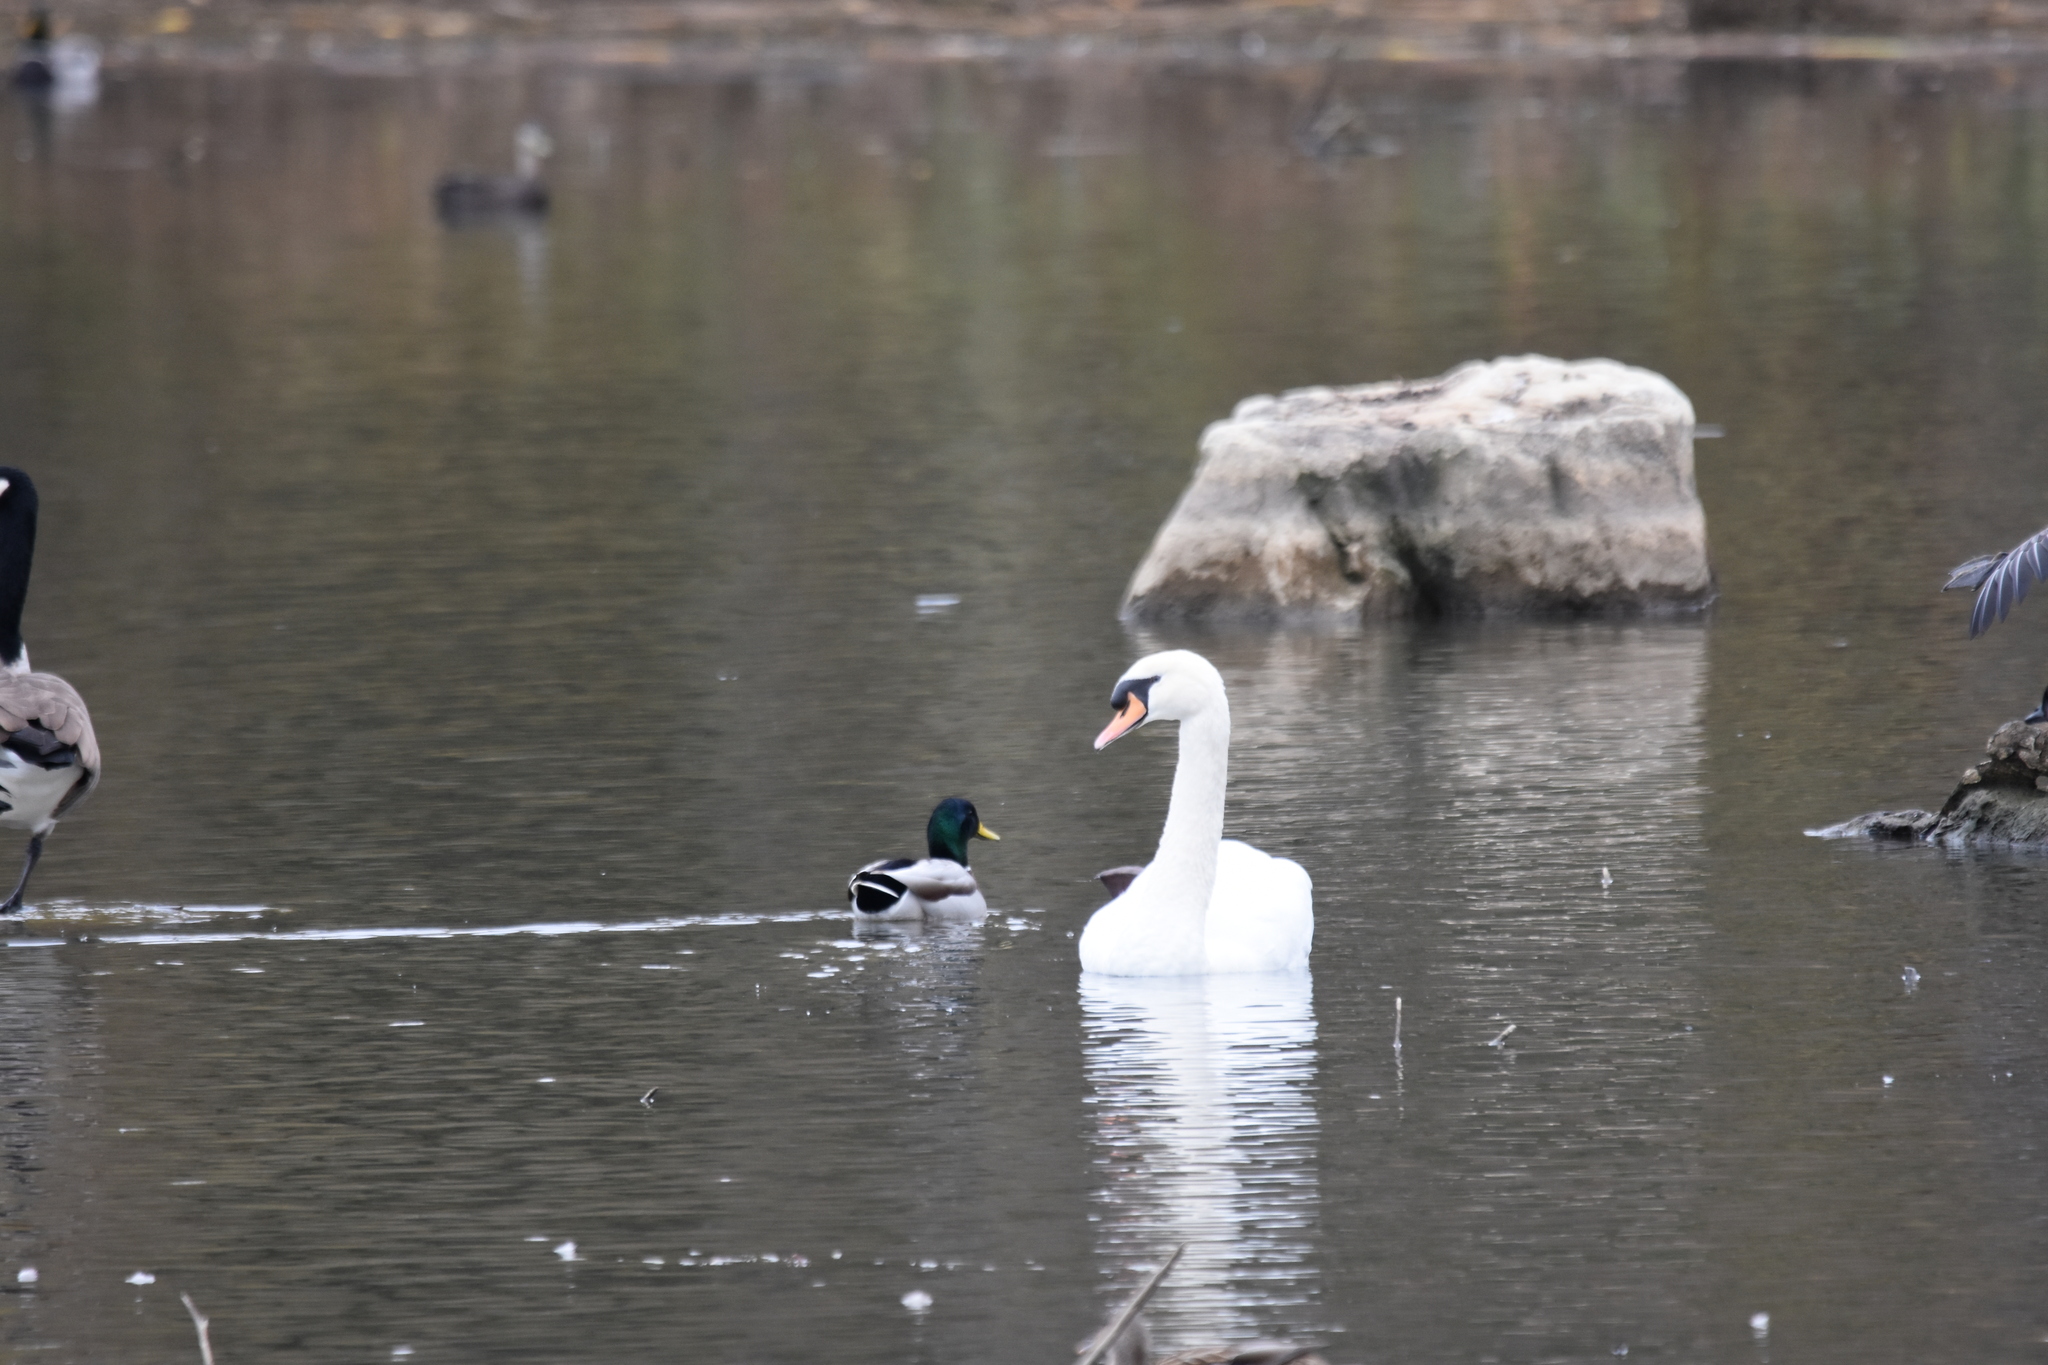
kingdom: Animalia
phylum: Chordata
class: Aves
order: Anseriformes
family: Anatidae
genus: Cygnus
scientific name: Cygnus olor
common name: Mute swan
